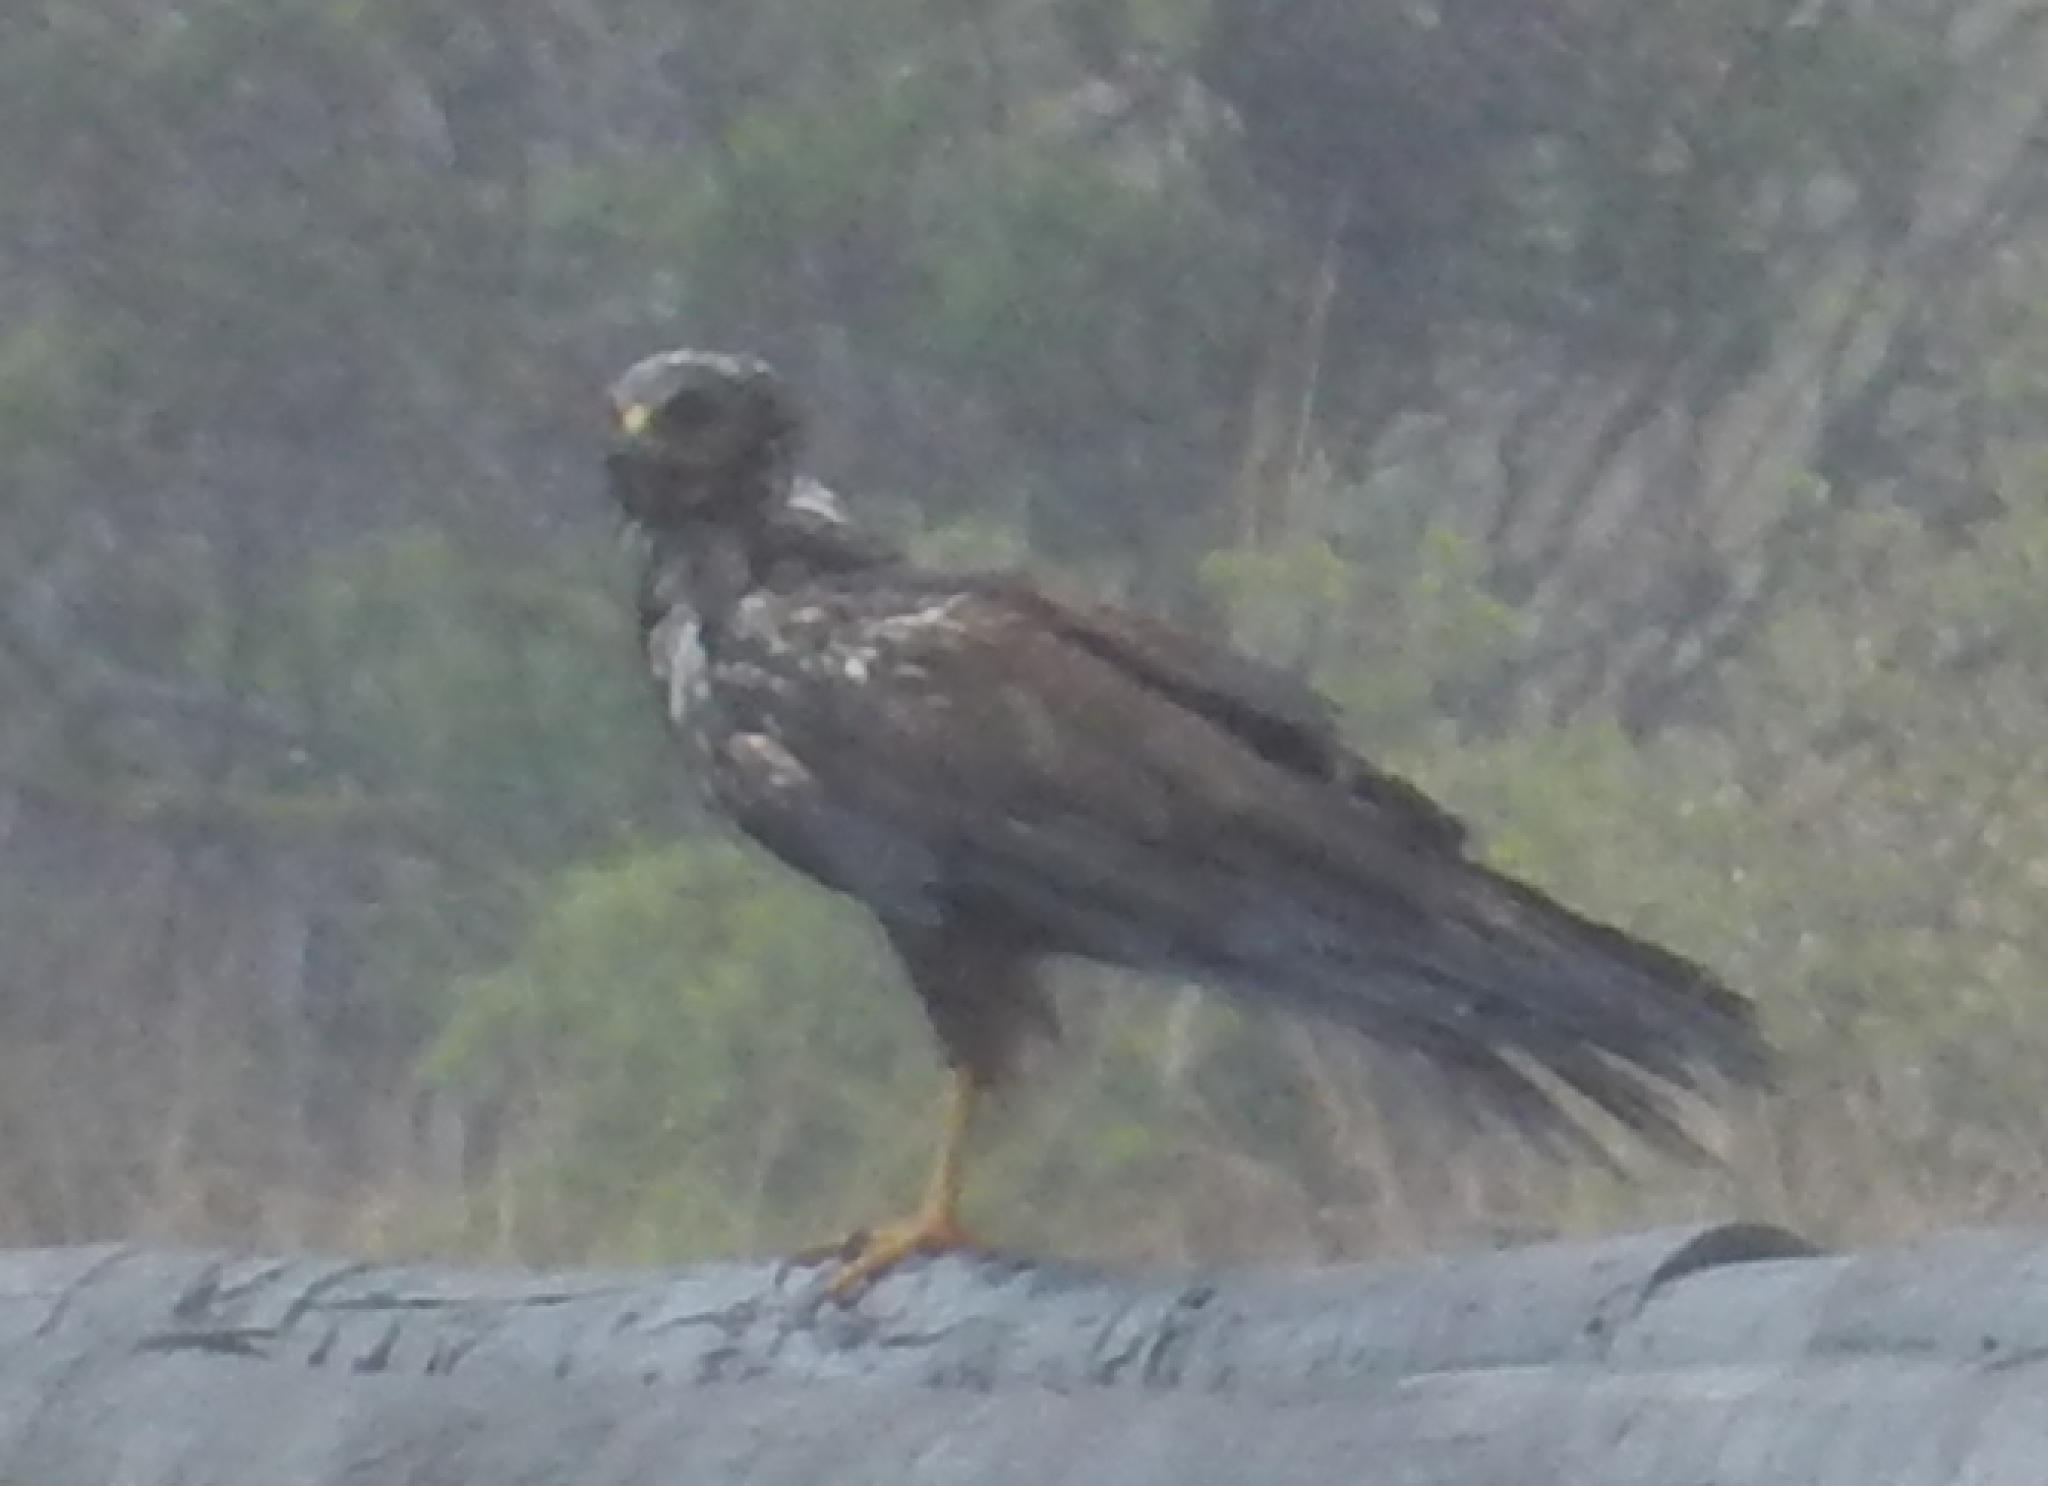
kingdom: Animalia
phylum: Chordata
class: Aves
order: Accipitriformes
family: Accipitridae
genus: Circus
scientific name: Circus ranivorus
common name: African marsh-harrier
